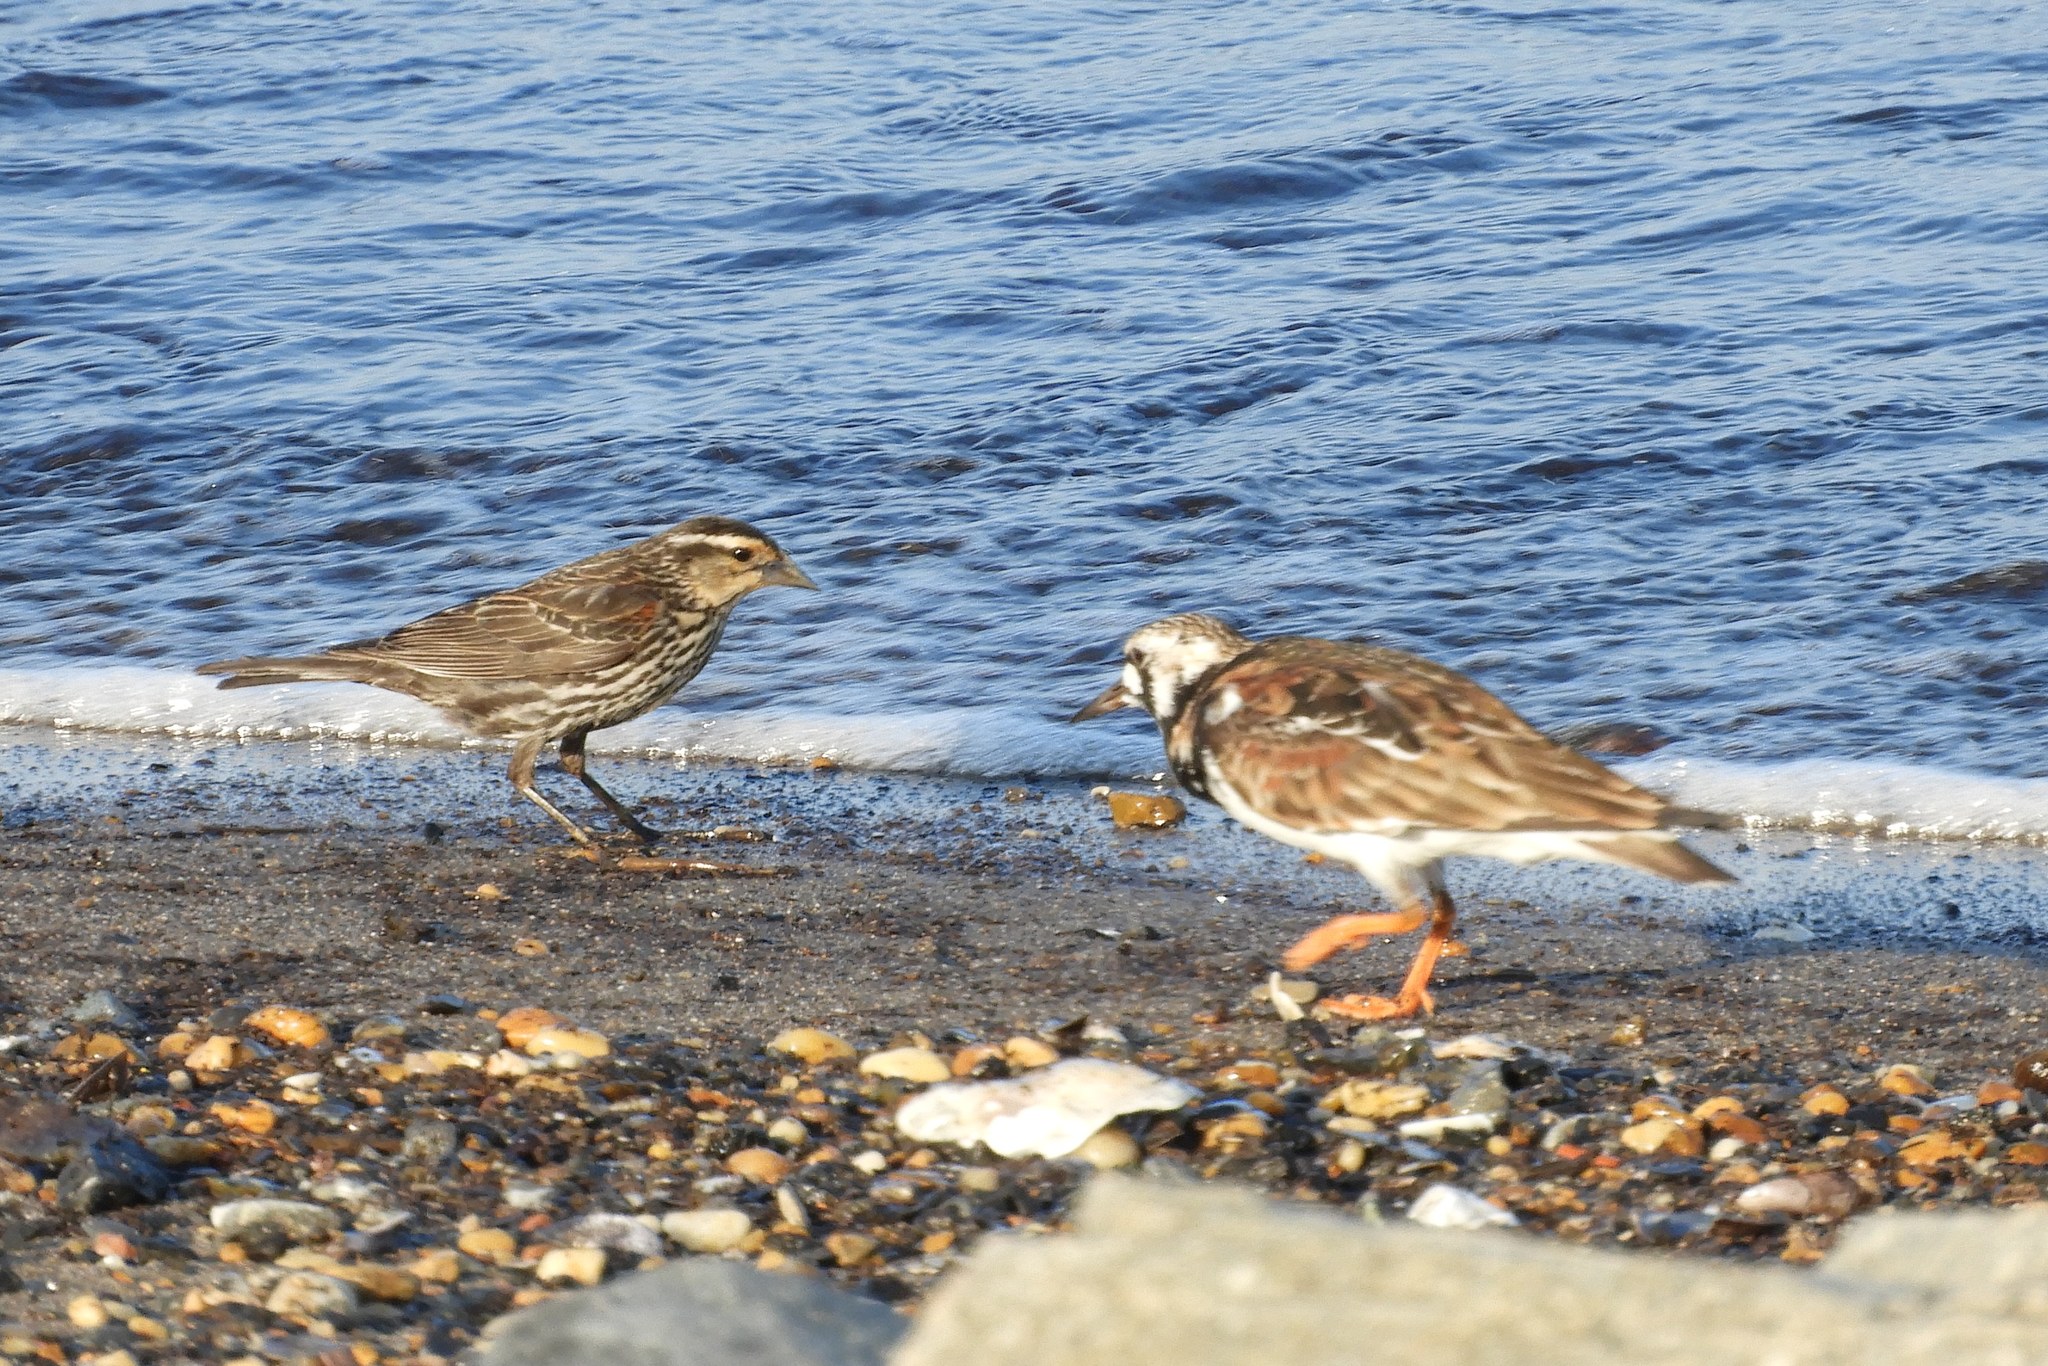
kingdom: Animalia
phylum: Chordata
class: Aves
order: Passeriformes
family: Icteridae
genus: Agelaius
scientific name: Agelaius phoeniceus
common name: Red-winged blackbird
